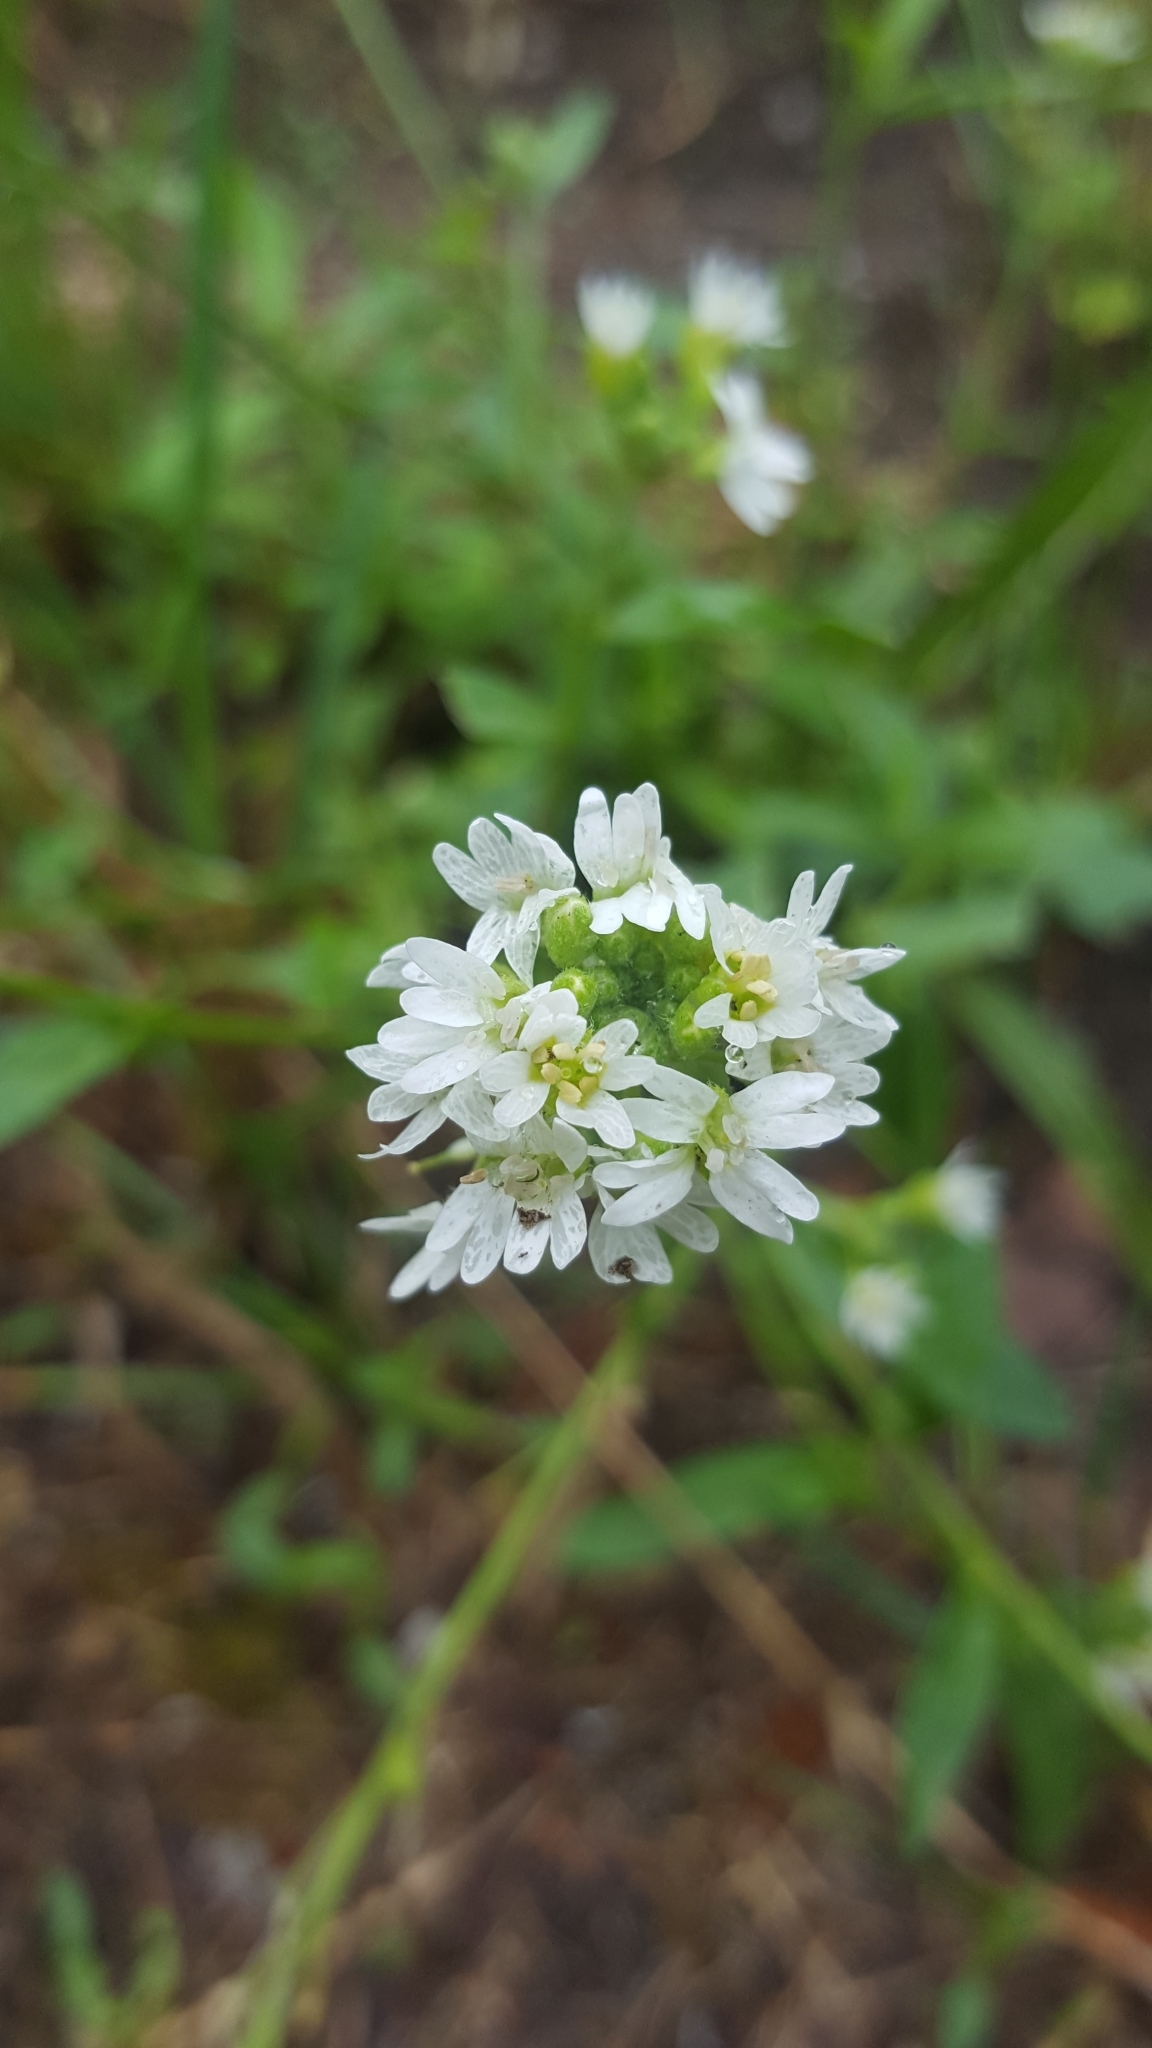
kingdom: Plantae
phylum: Tracheophyta
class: Magnoliopsida
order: Brassicales
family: Brassicaceae
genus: Berteroa
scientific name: Berteroa incana
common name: Hoary alison
